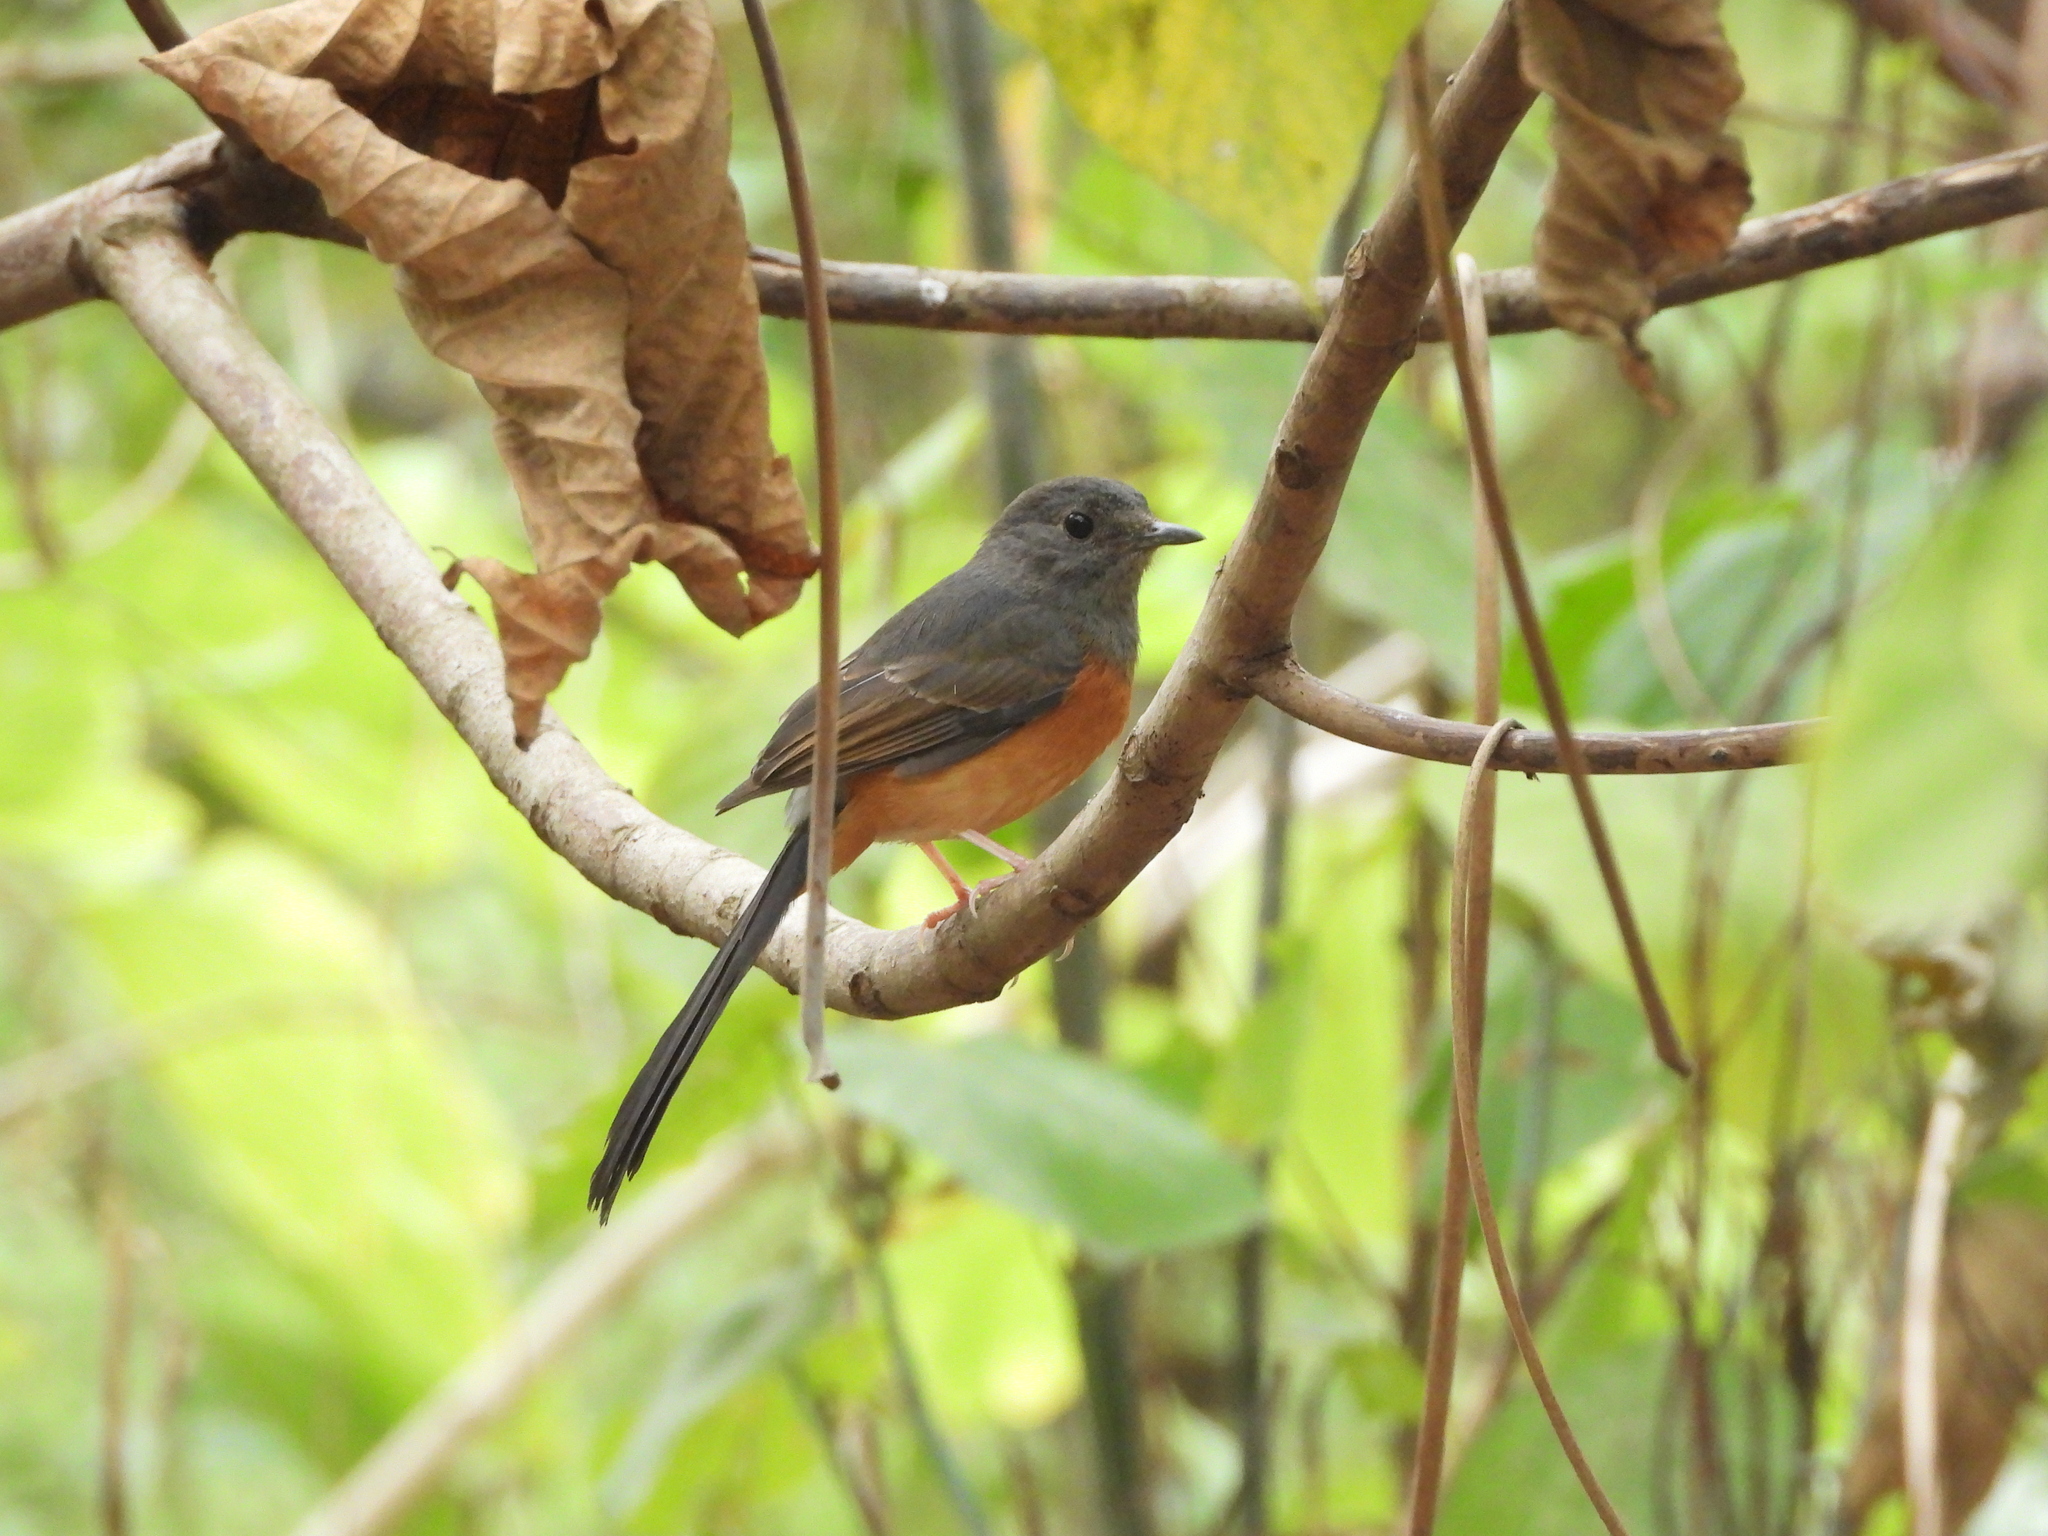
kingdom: Animalia
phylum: Chordata
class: Aves
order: Passeriformes
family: Muscicapidae
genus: Copsychus
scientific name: Copsychus malabaricus
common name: White-rumped shama
